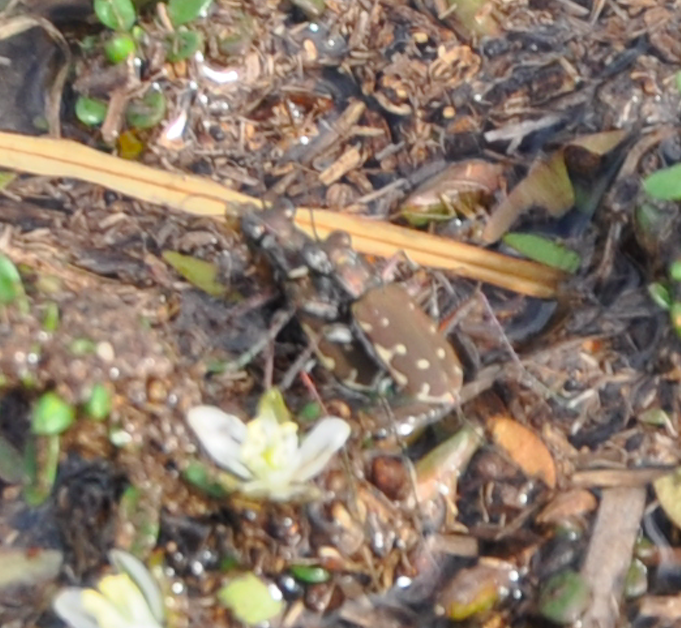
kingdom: Animalia
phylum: Arthropoda
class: Insecta
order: Coleoptera
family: Carabidae
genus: Myriochila
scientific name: Myriochila trilunaris
